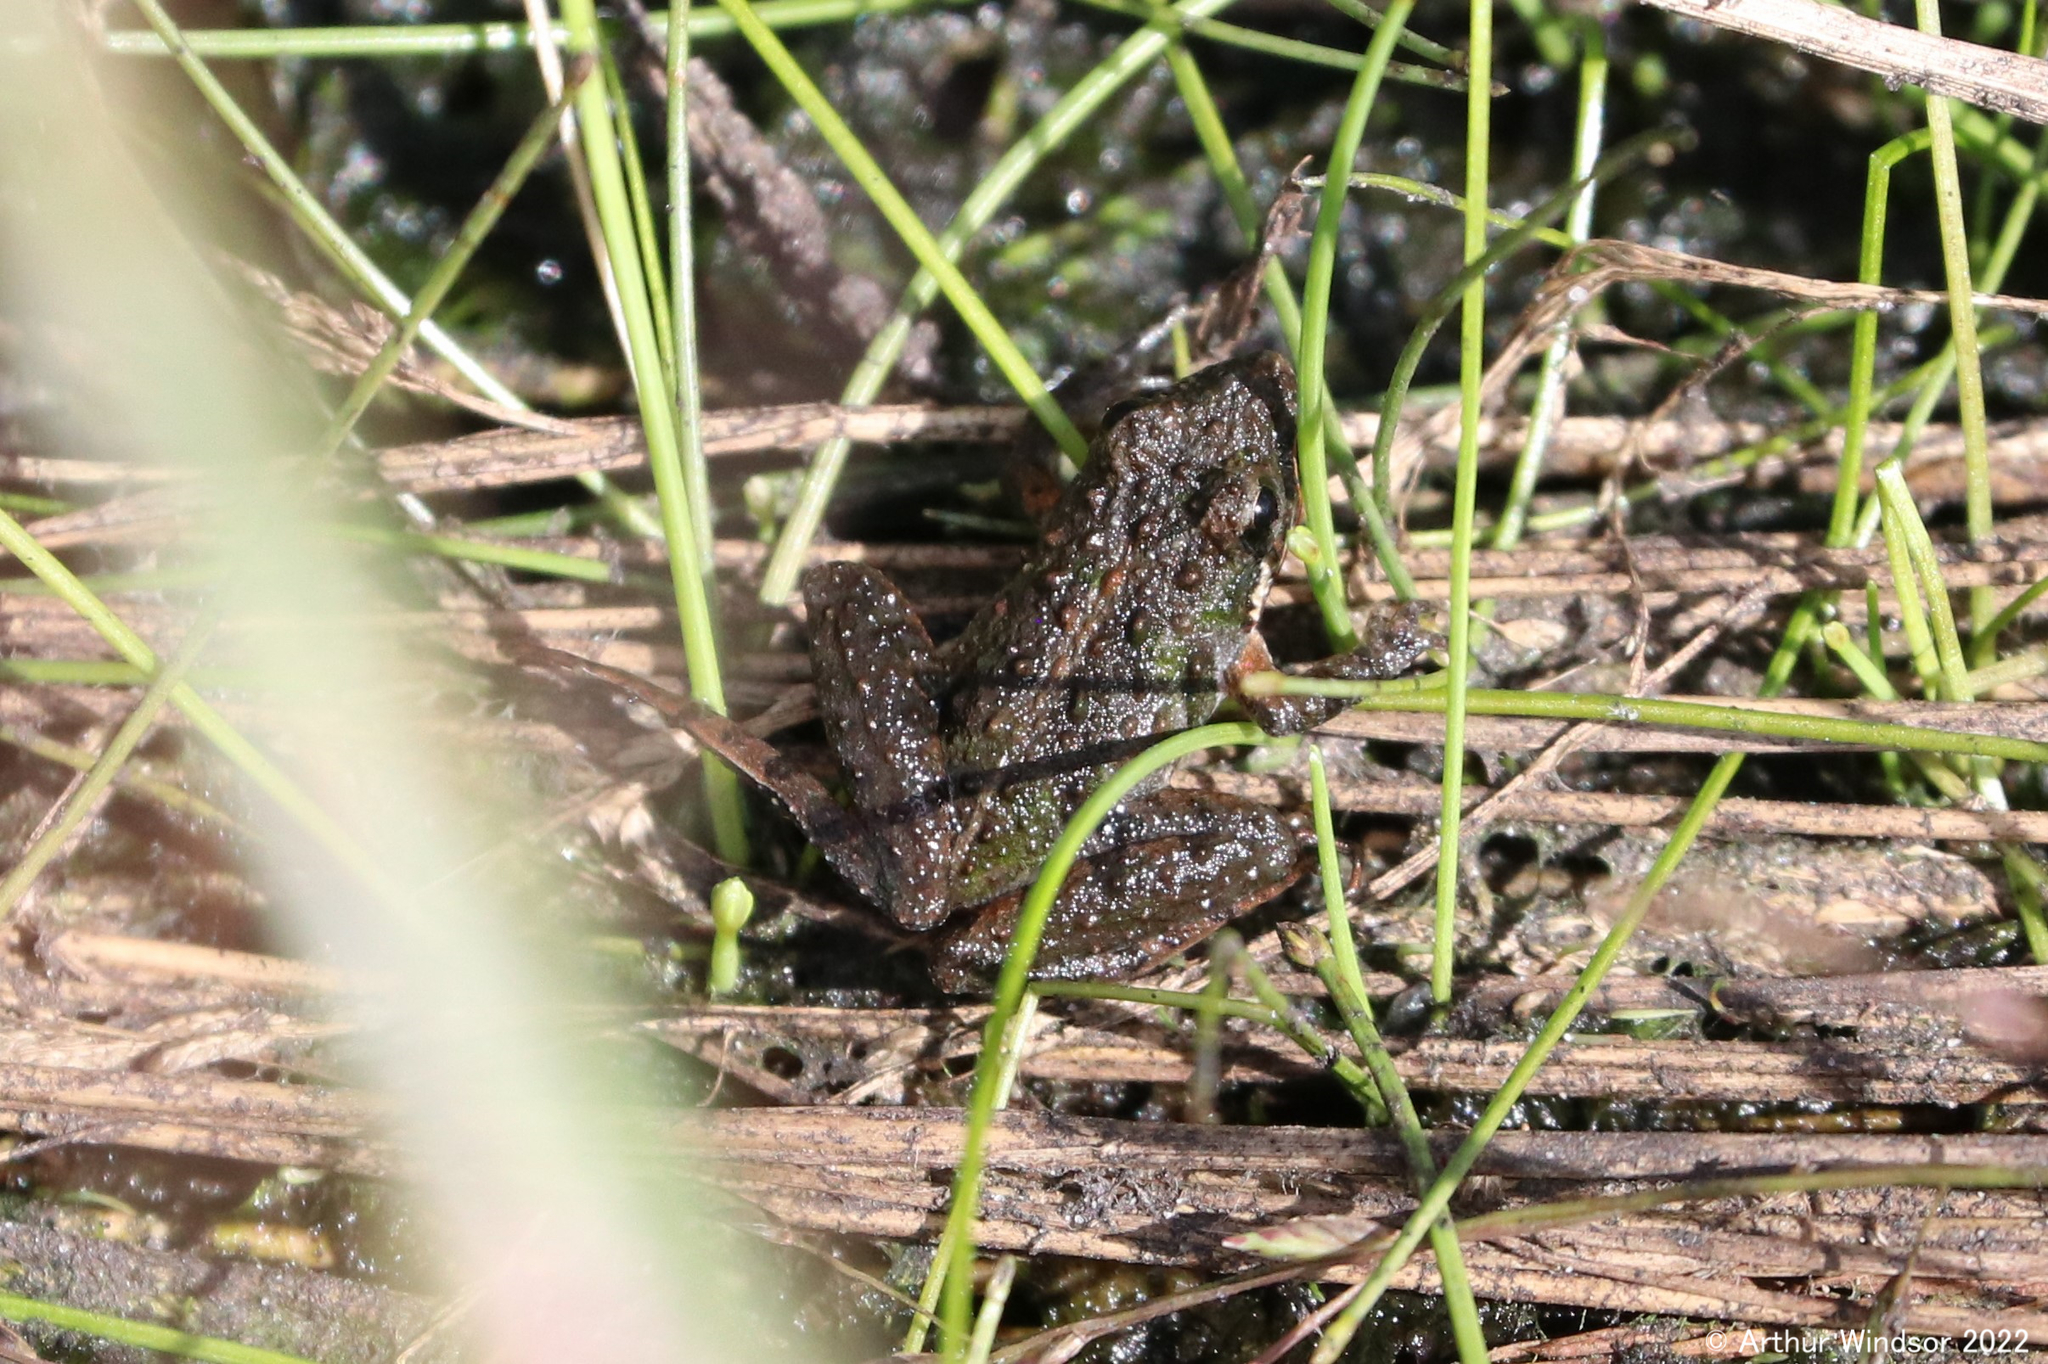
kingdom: Animalia
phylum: Chordata
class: Amphibia
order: Anura
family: Hylidae
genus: Acris
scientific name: Acris gryllus
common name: Southern cricket frog
